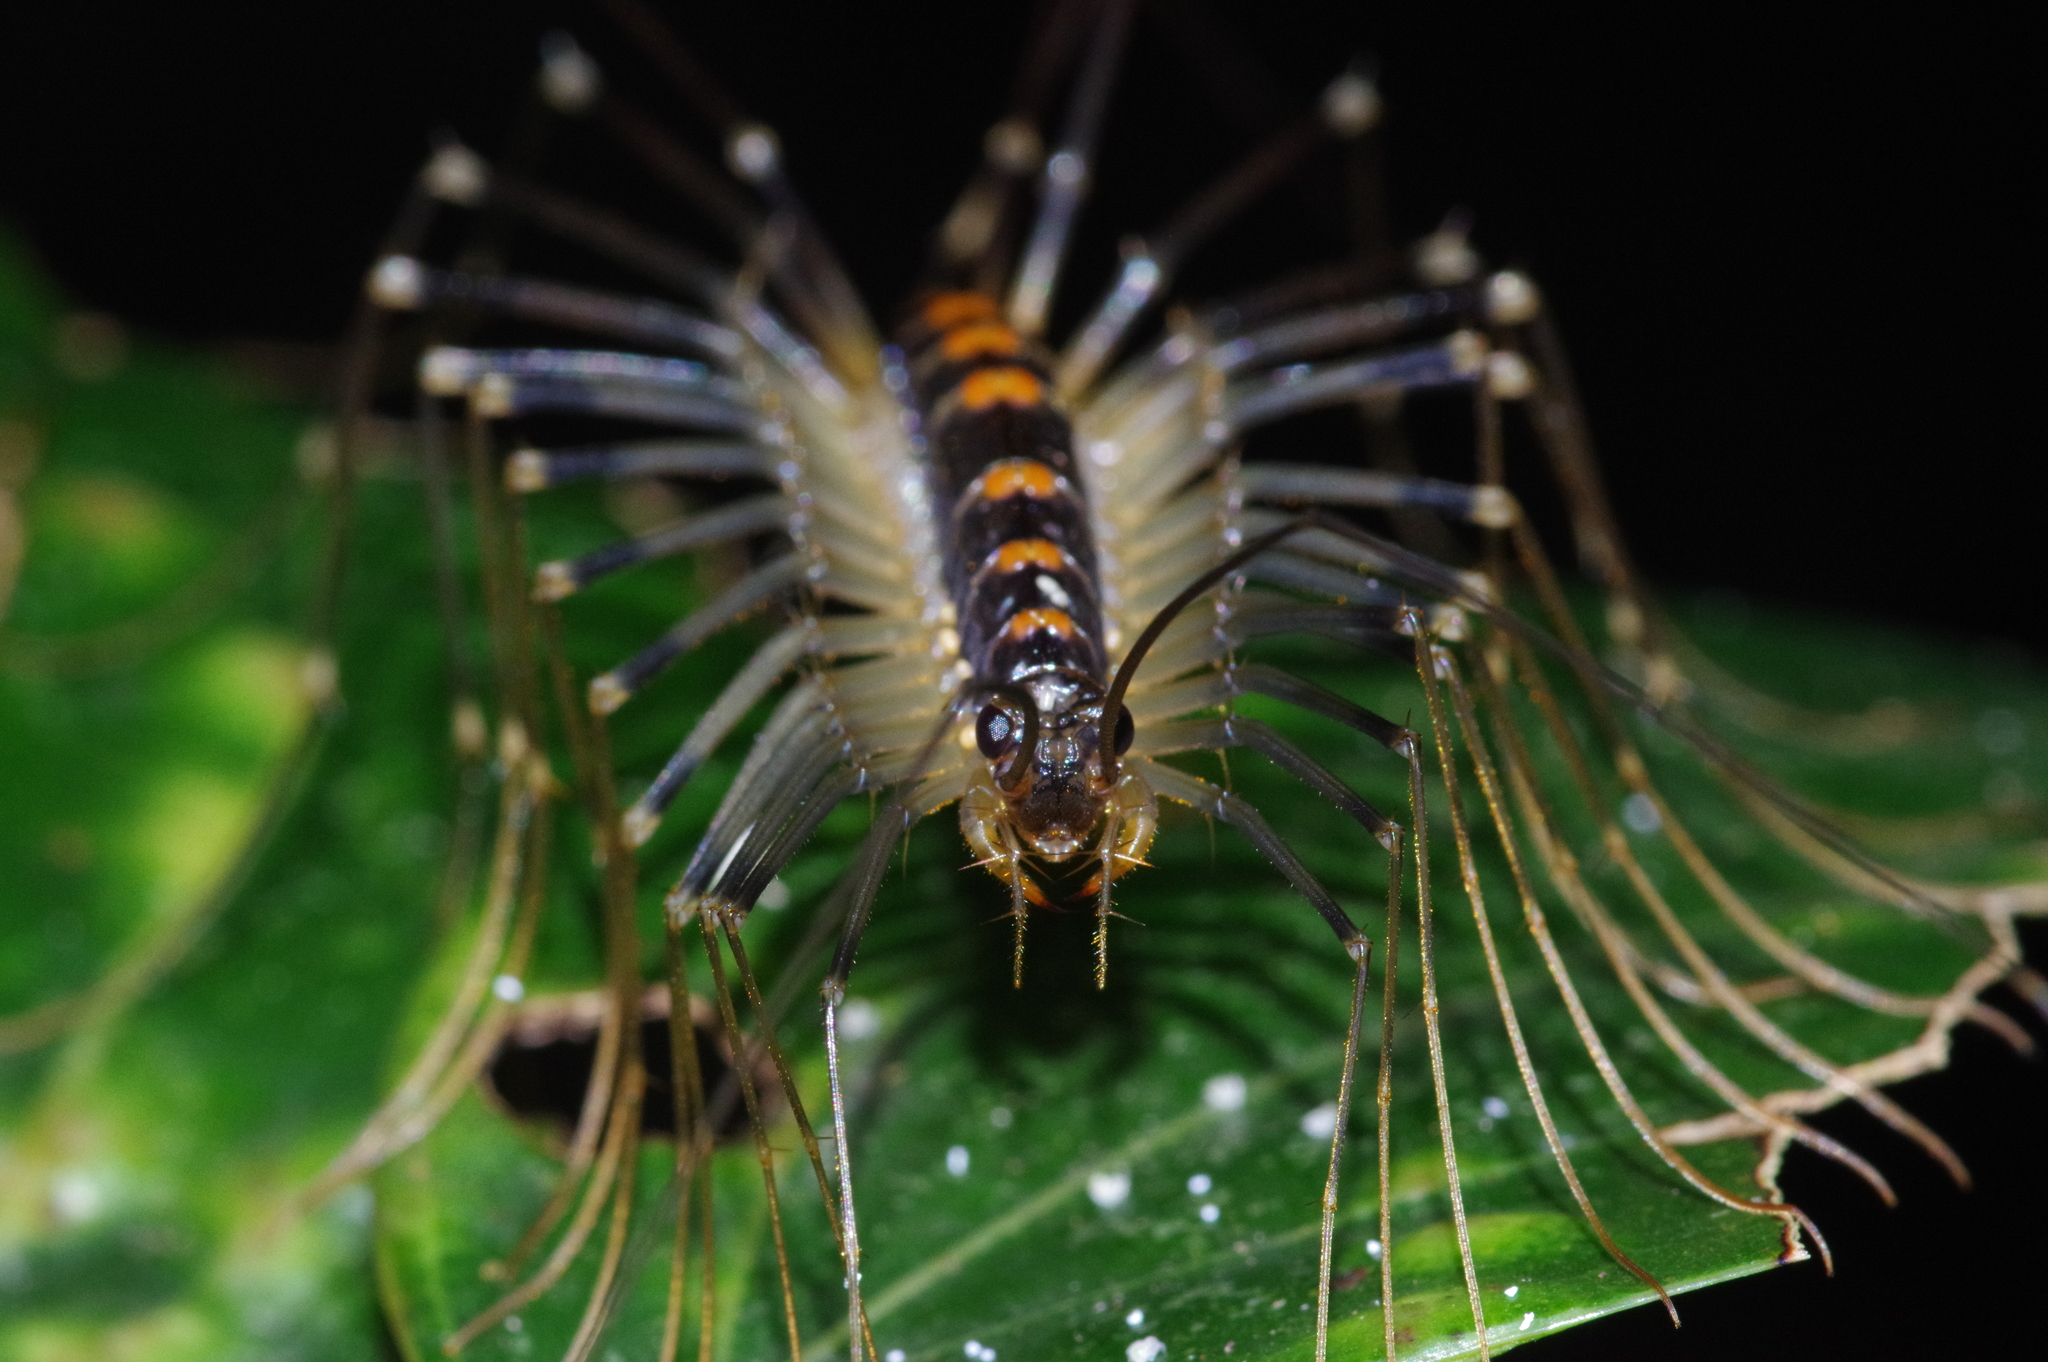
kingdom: Animalia
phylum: Arthropoda
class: Chilopoda
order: Scutigeromorpha
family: Scutigeridae
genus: Thereuopoda
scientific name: Thereuopoda clunifera
